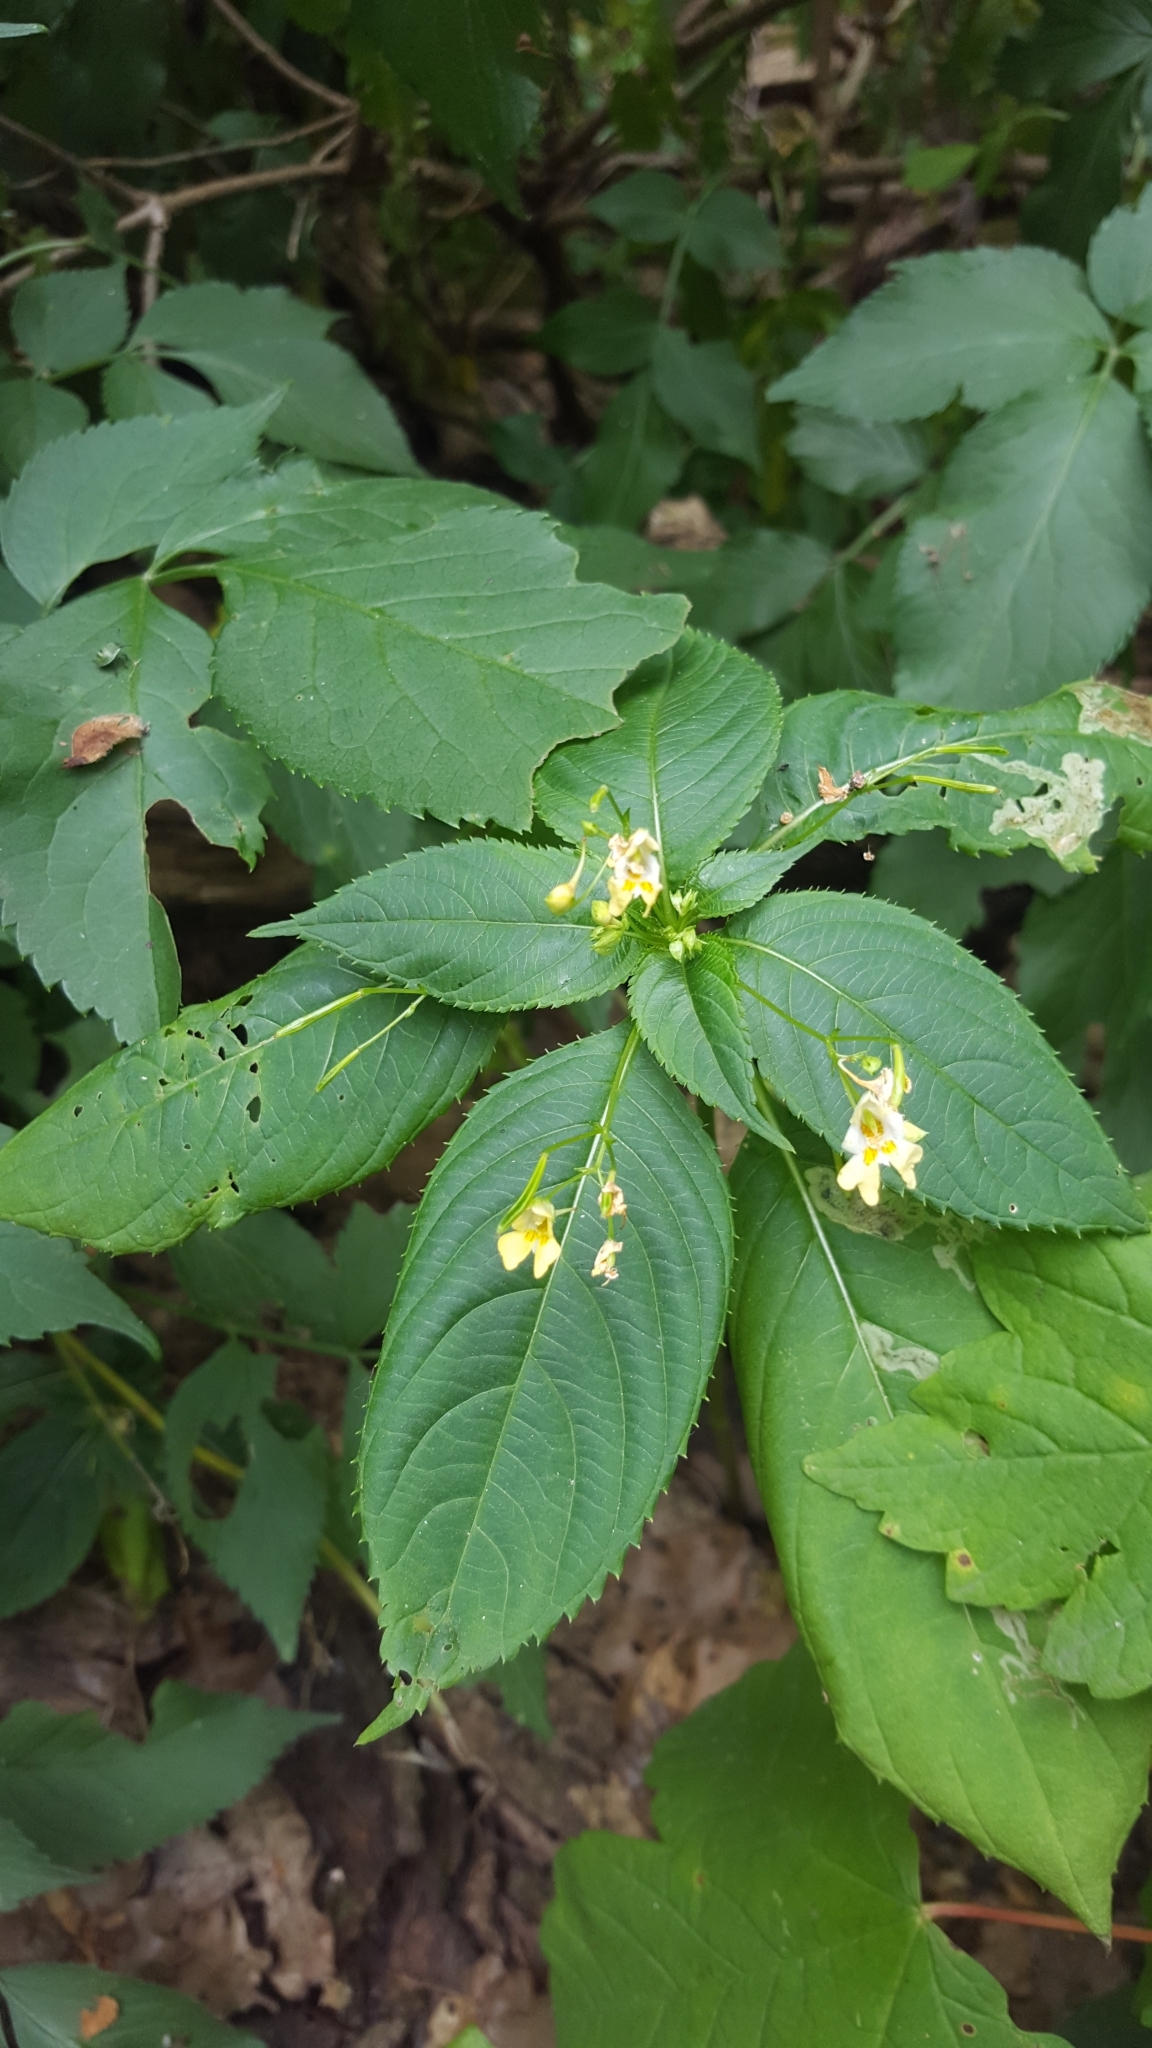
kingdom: Plantae
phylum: Tracheophyta
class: Magnoliopsida
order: Ericales
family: Balsaminaceae
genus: Impatiens
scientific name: Impatiens parviflora
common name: Small balsam
